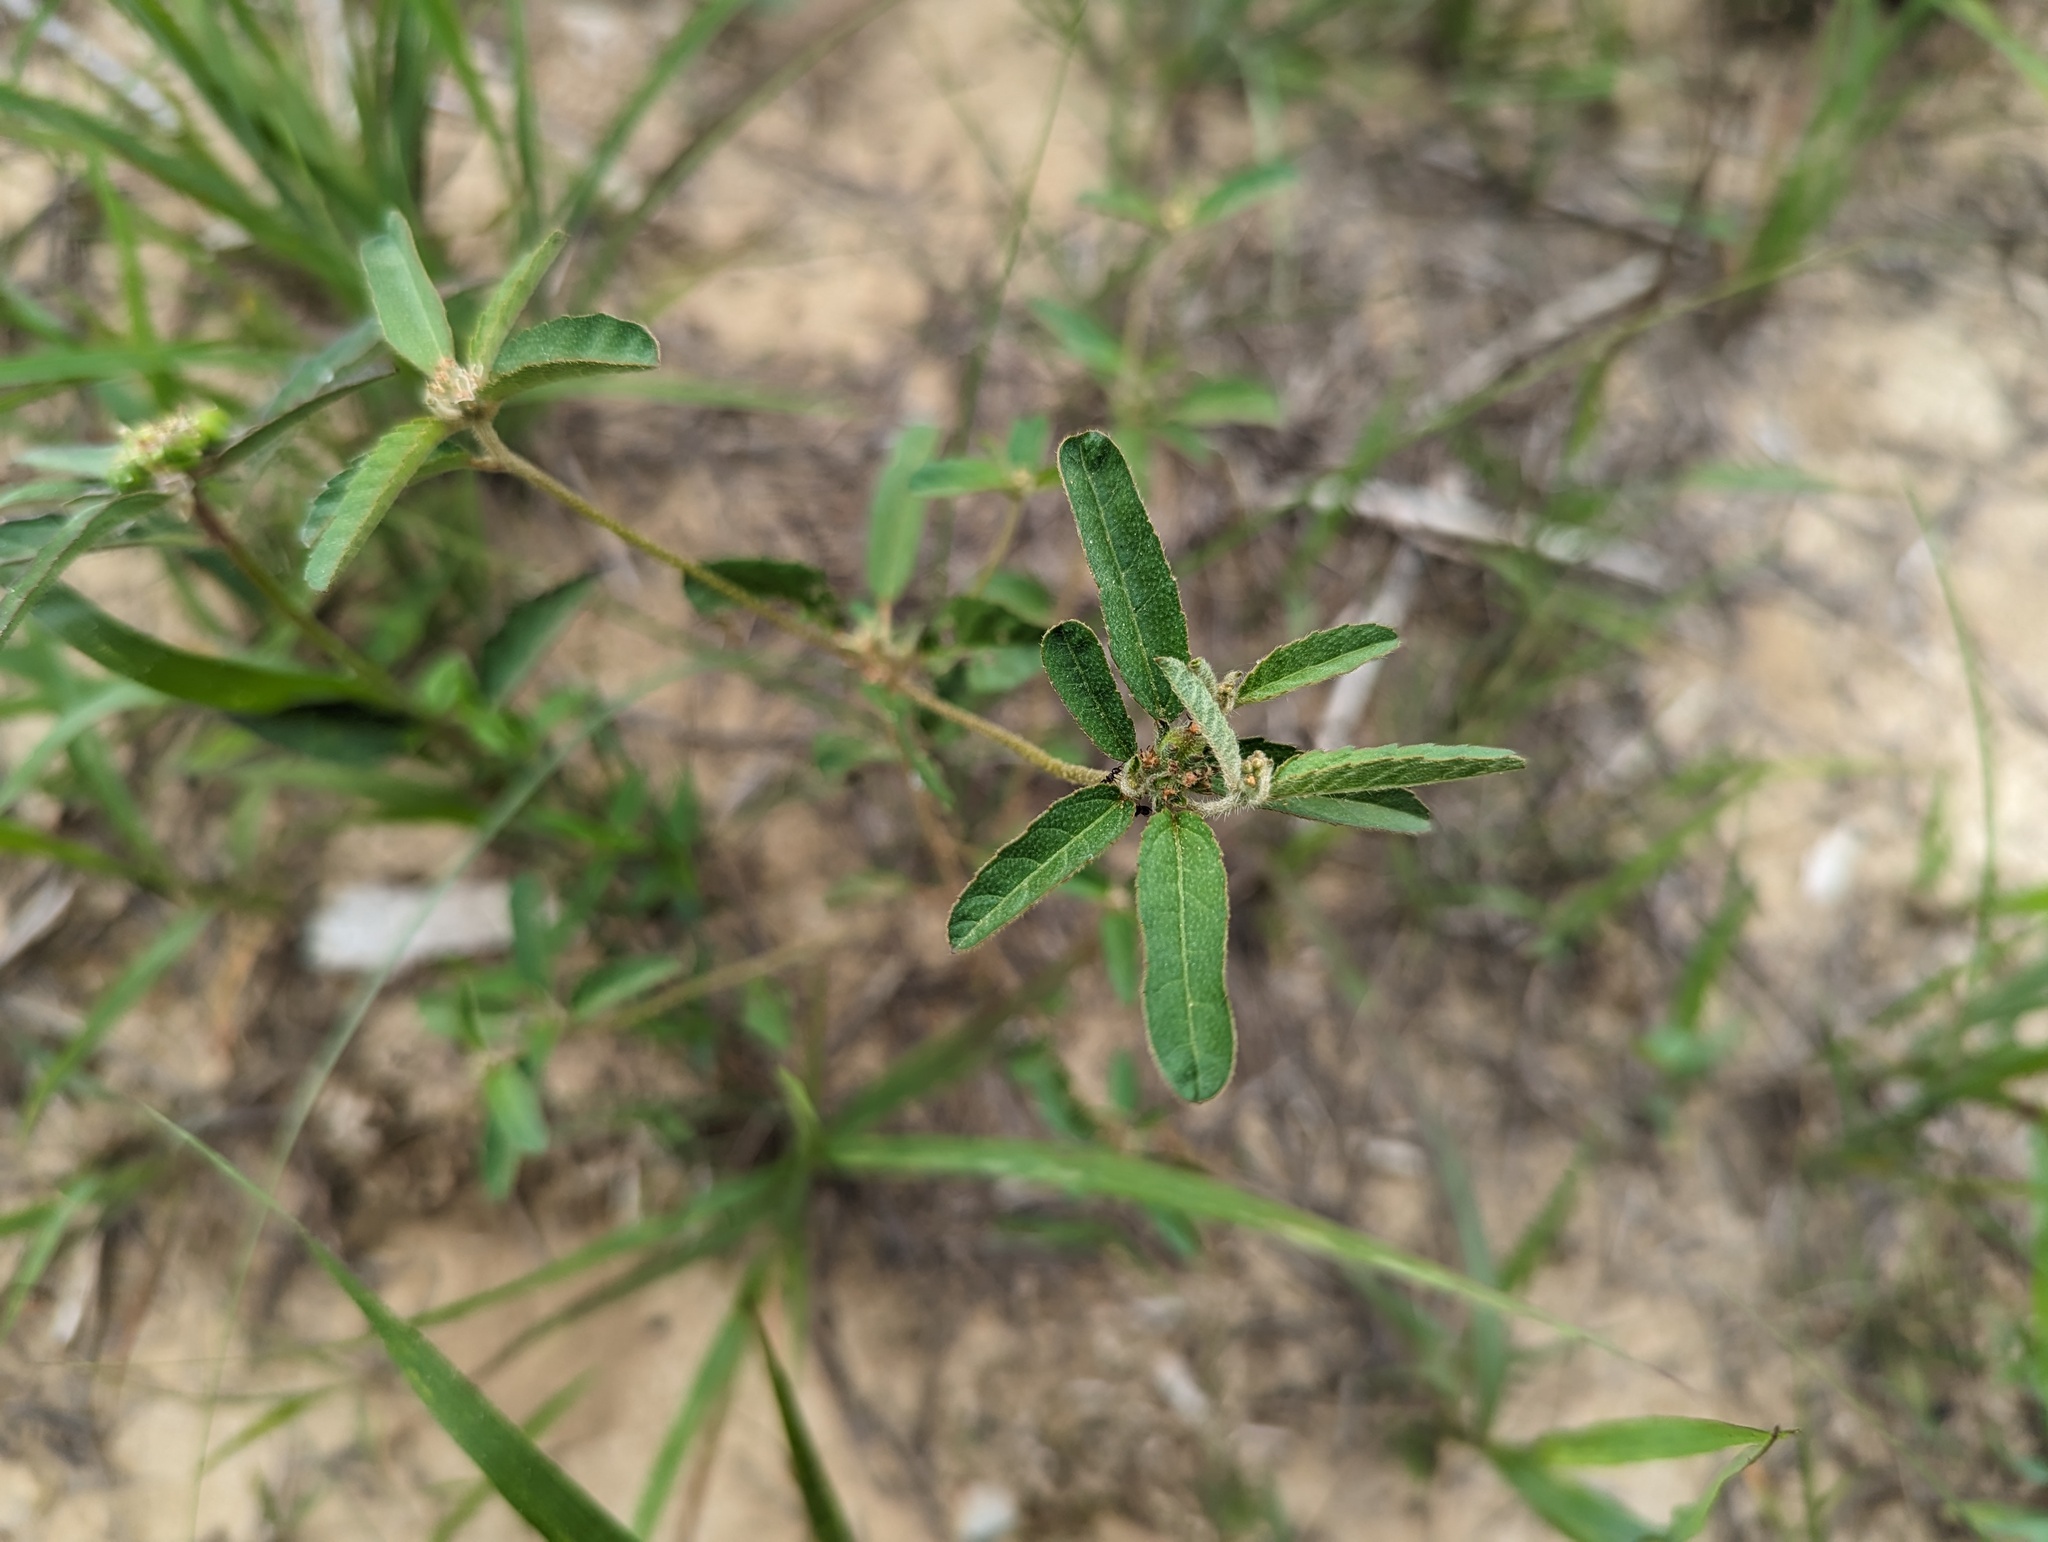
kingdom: Plantae
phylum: Tracheophyta
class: Magnoliopsida
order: Malpighiales
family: Euphorbiaceae
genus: Croton
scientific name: Croton glandulosus
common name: Tropic croton
